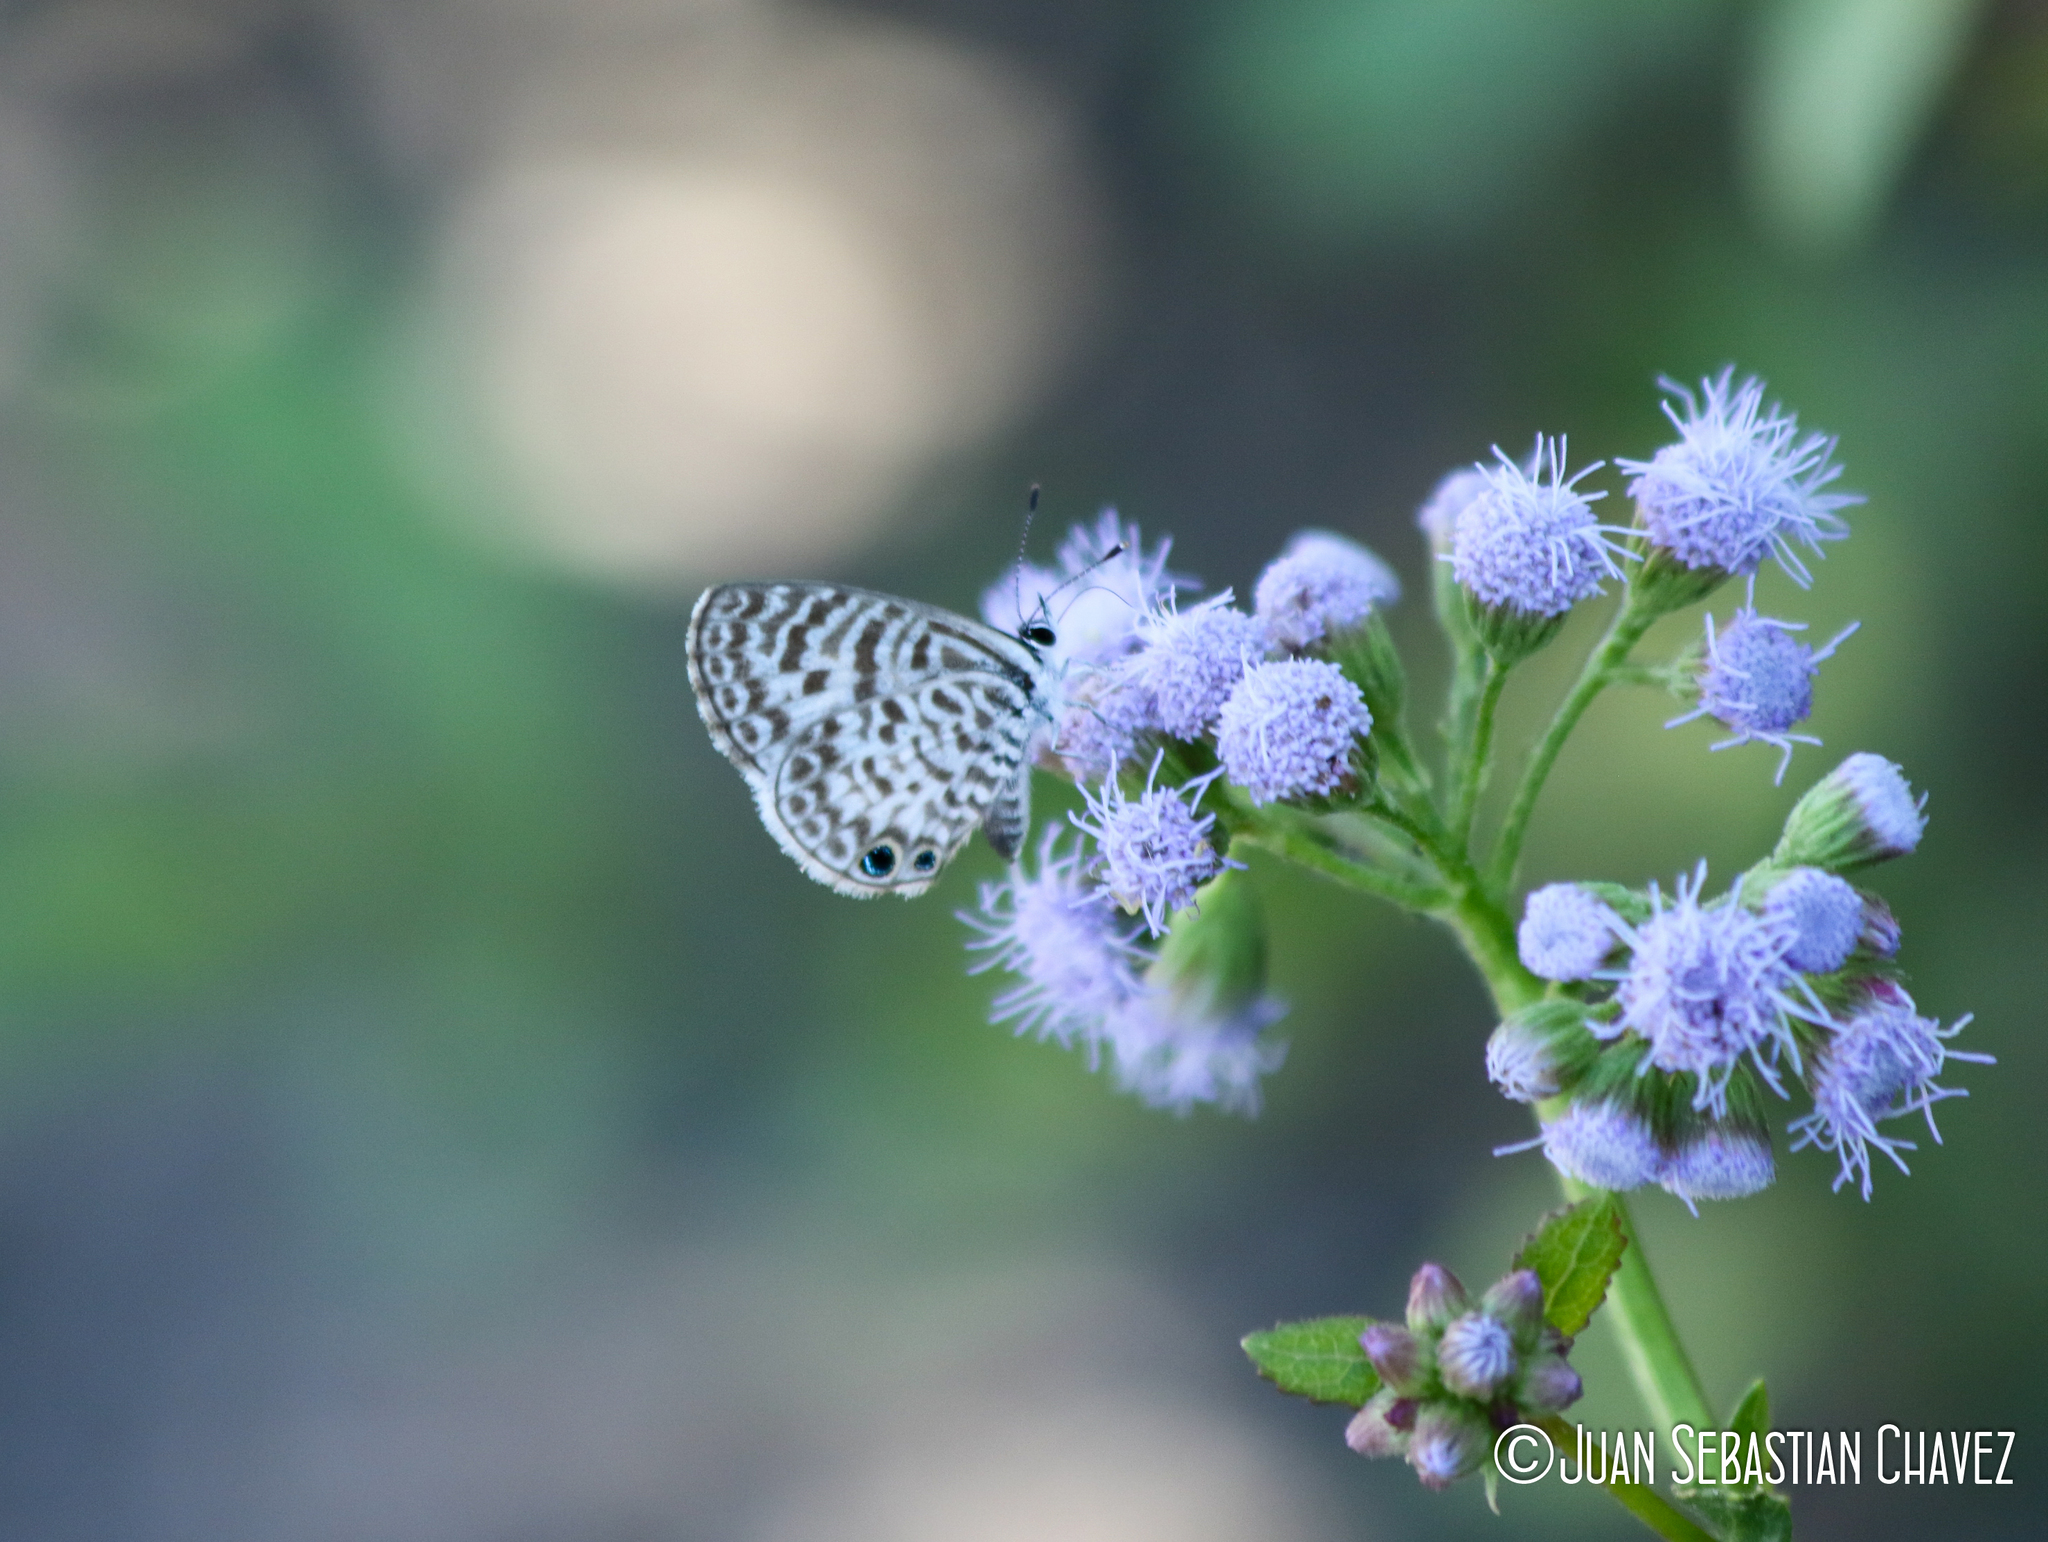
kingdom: Animalia
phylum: Arthropoda
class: Insecta
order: Lepidoptera
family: Lycaenidae
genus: Leptotes
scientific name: Leptotes cassius
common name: Cassius blue
